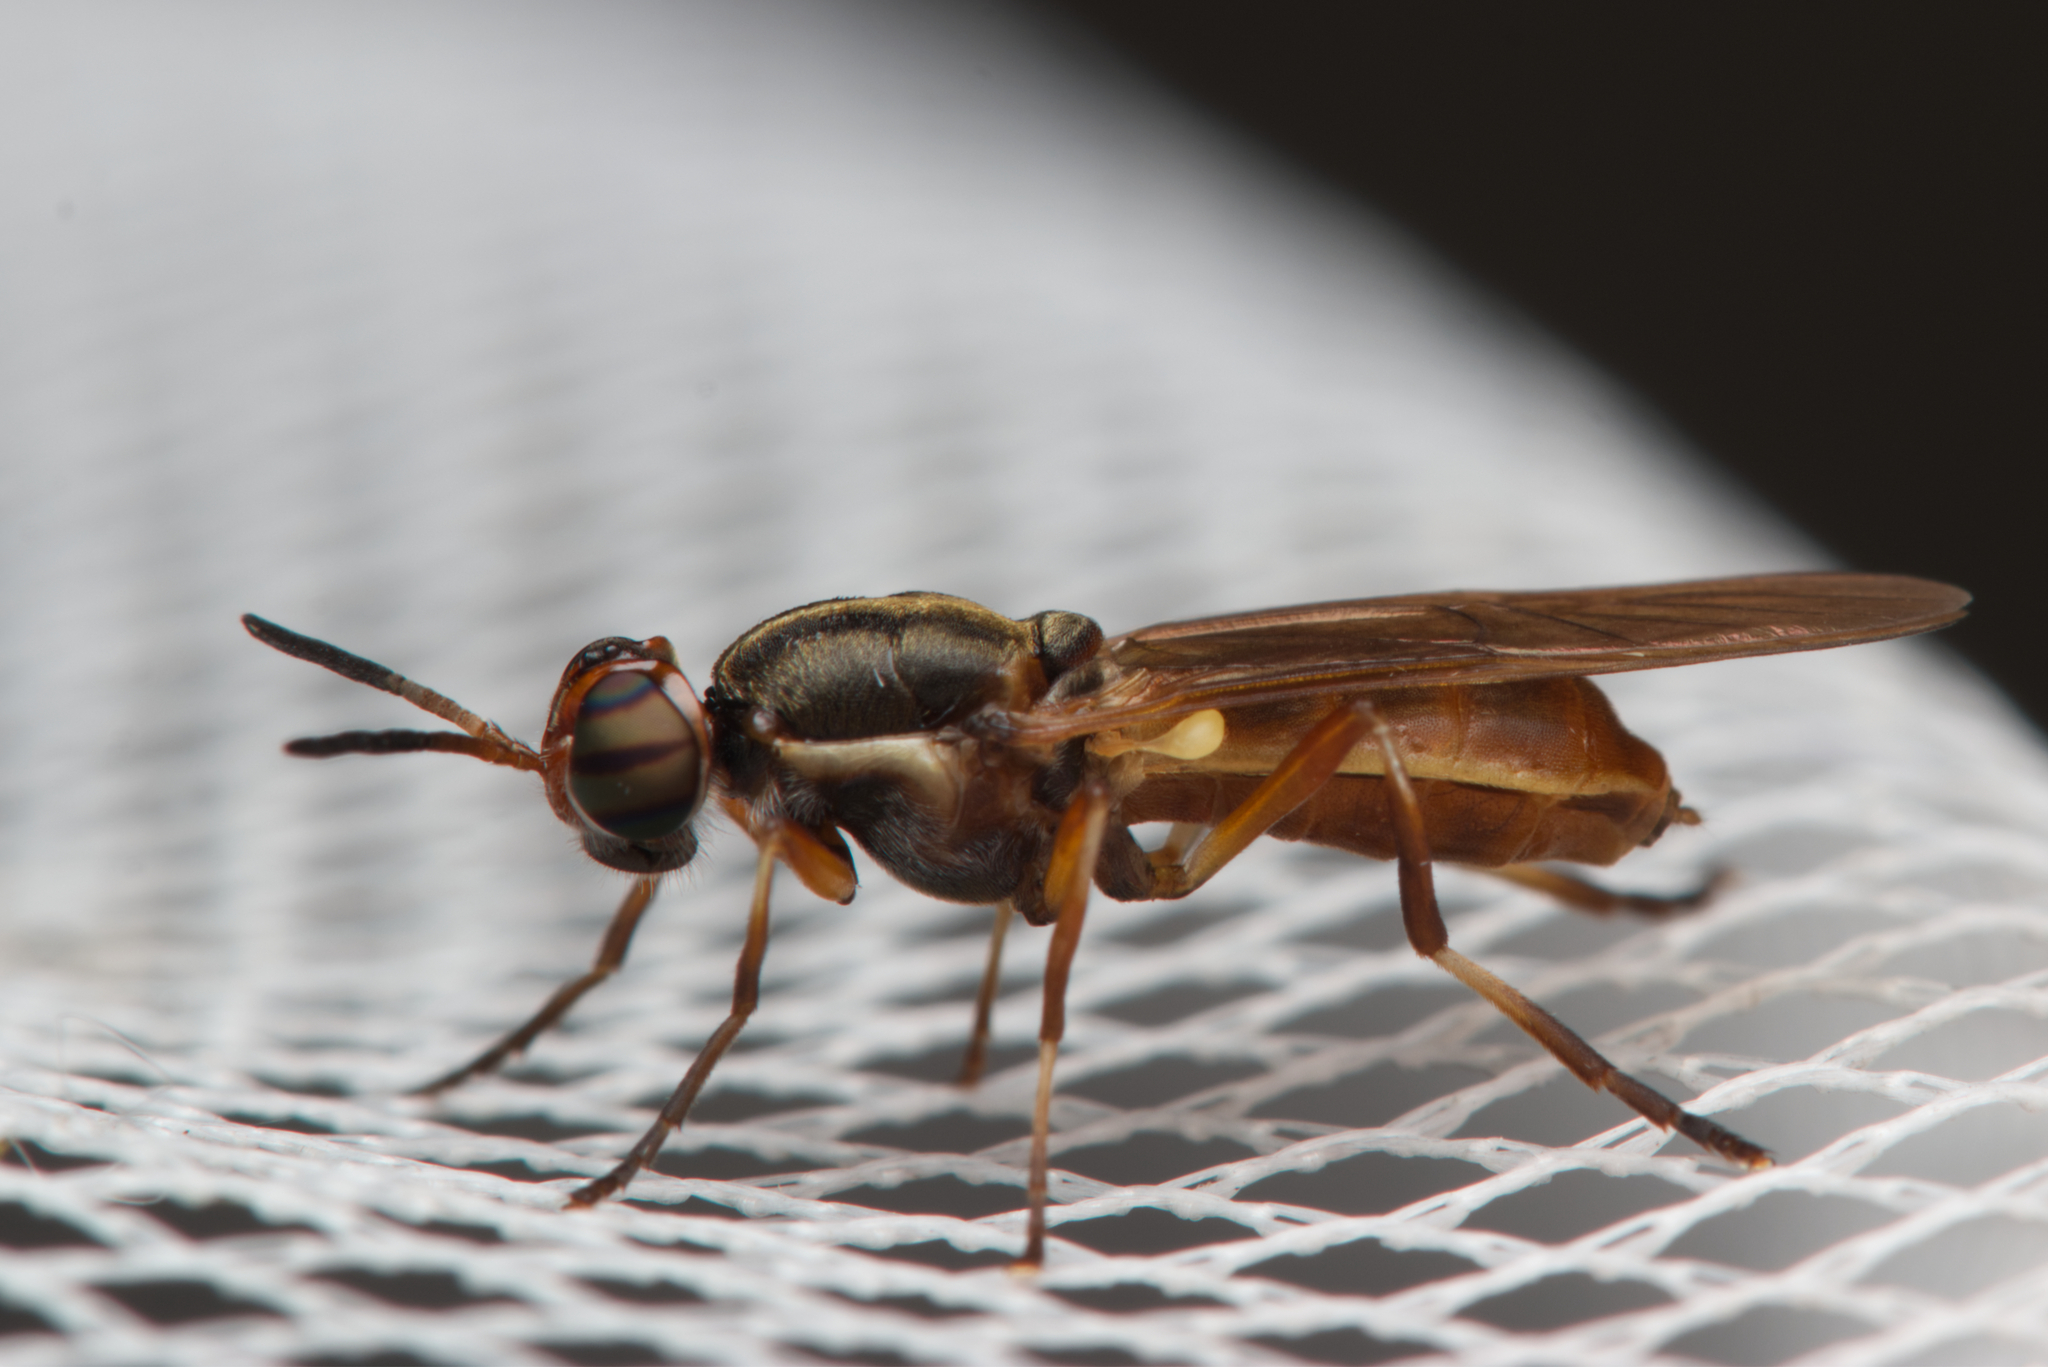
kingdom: Animalia
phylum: Arthropoda
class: Insecta
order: Diptera
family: Stratiomyidae
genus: Lagenosoma
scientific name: Lagenosoma dispar
